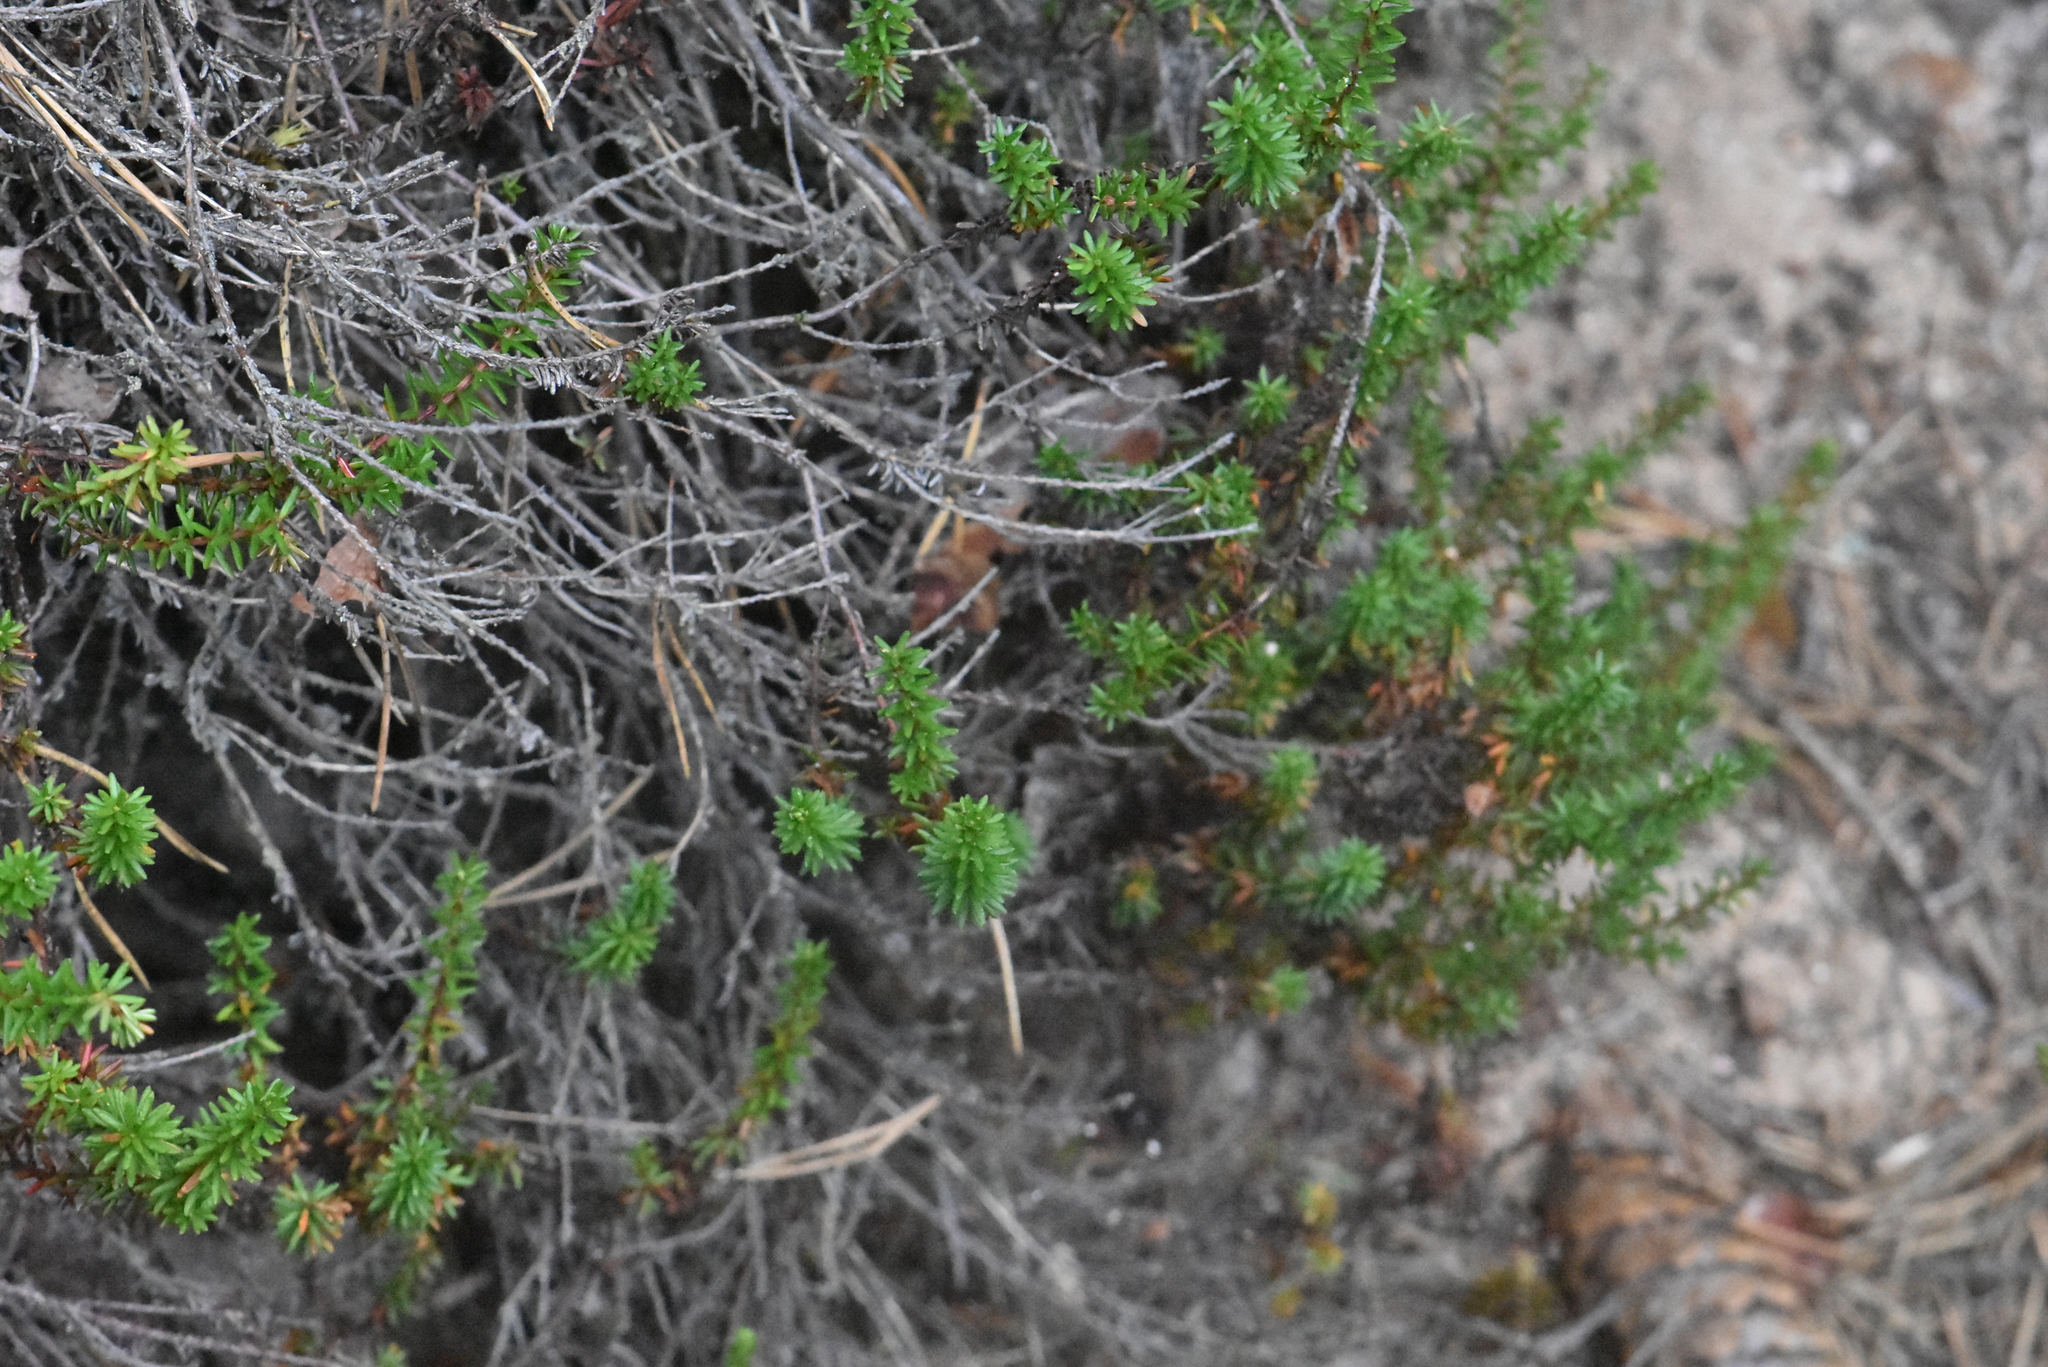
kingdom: Plantae
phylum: Tracheophyta
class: Magnoliopsida
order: Ericales
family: Ericaceae
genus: Empetrum
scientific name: Empetrum nigrum
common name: Black crowberry
